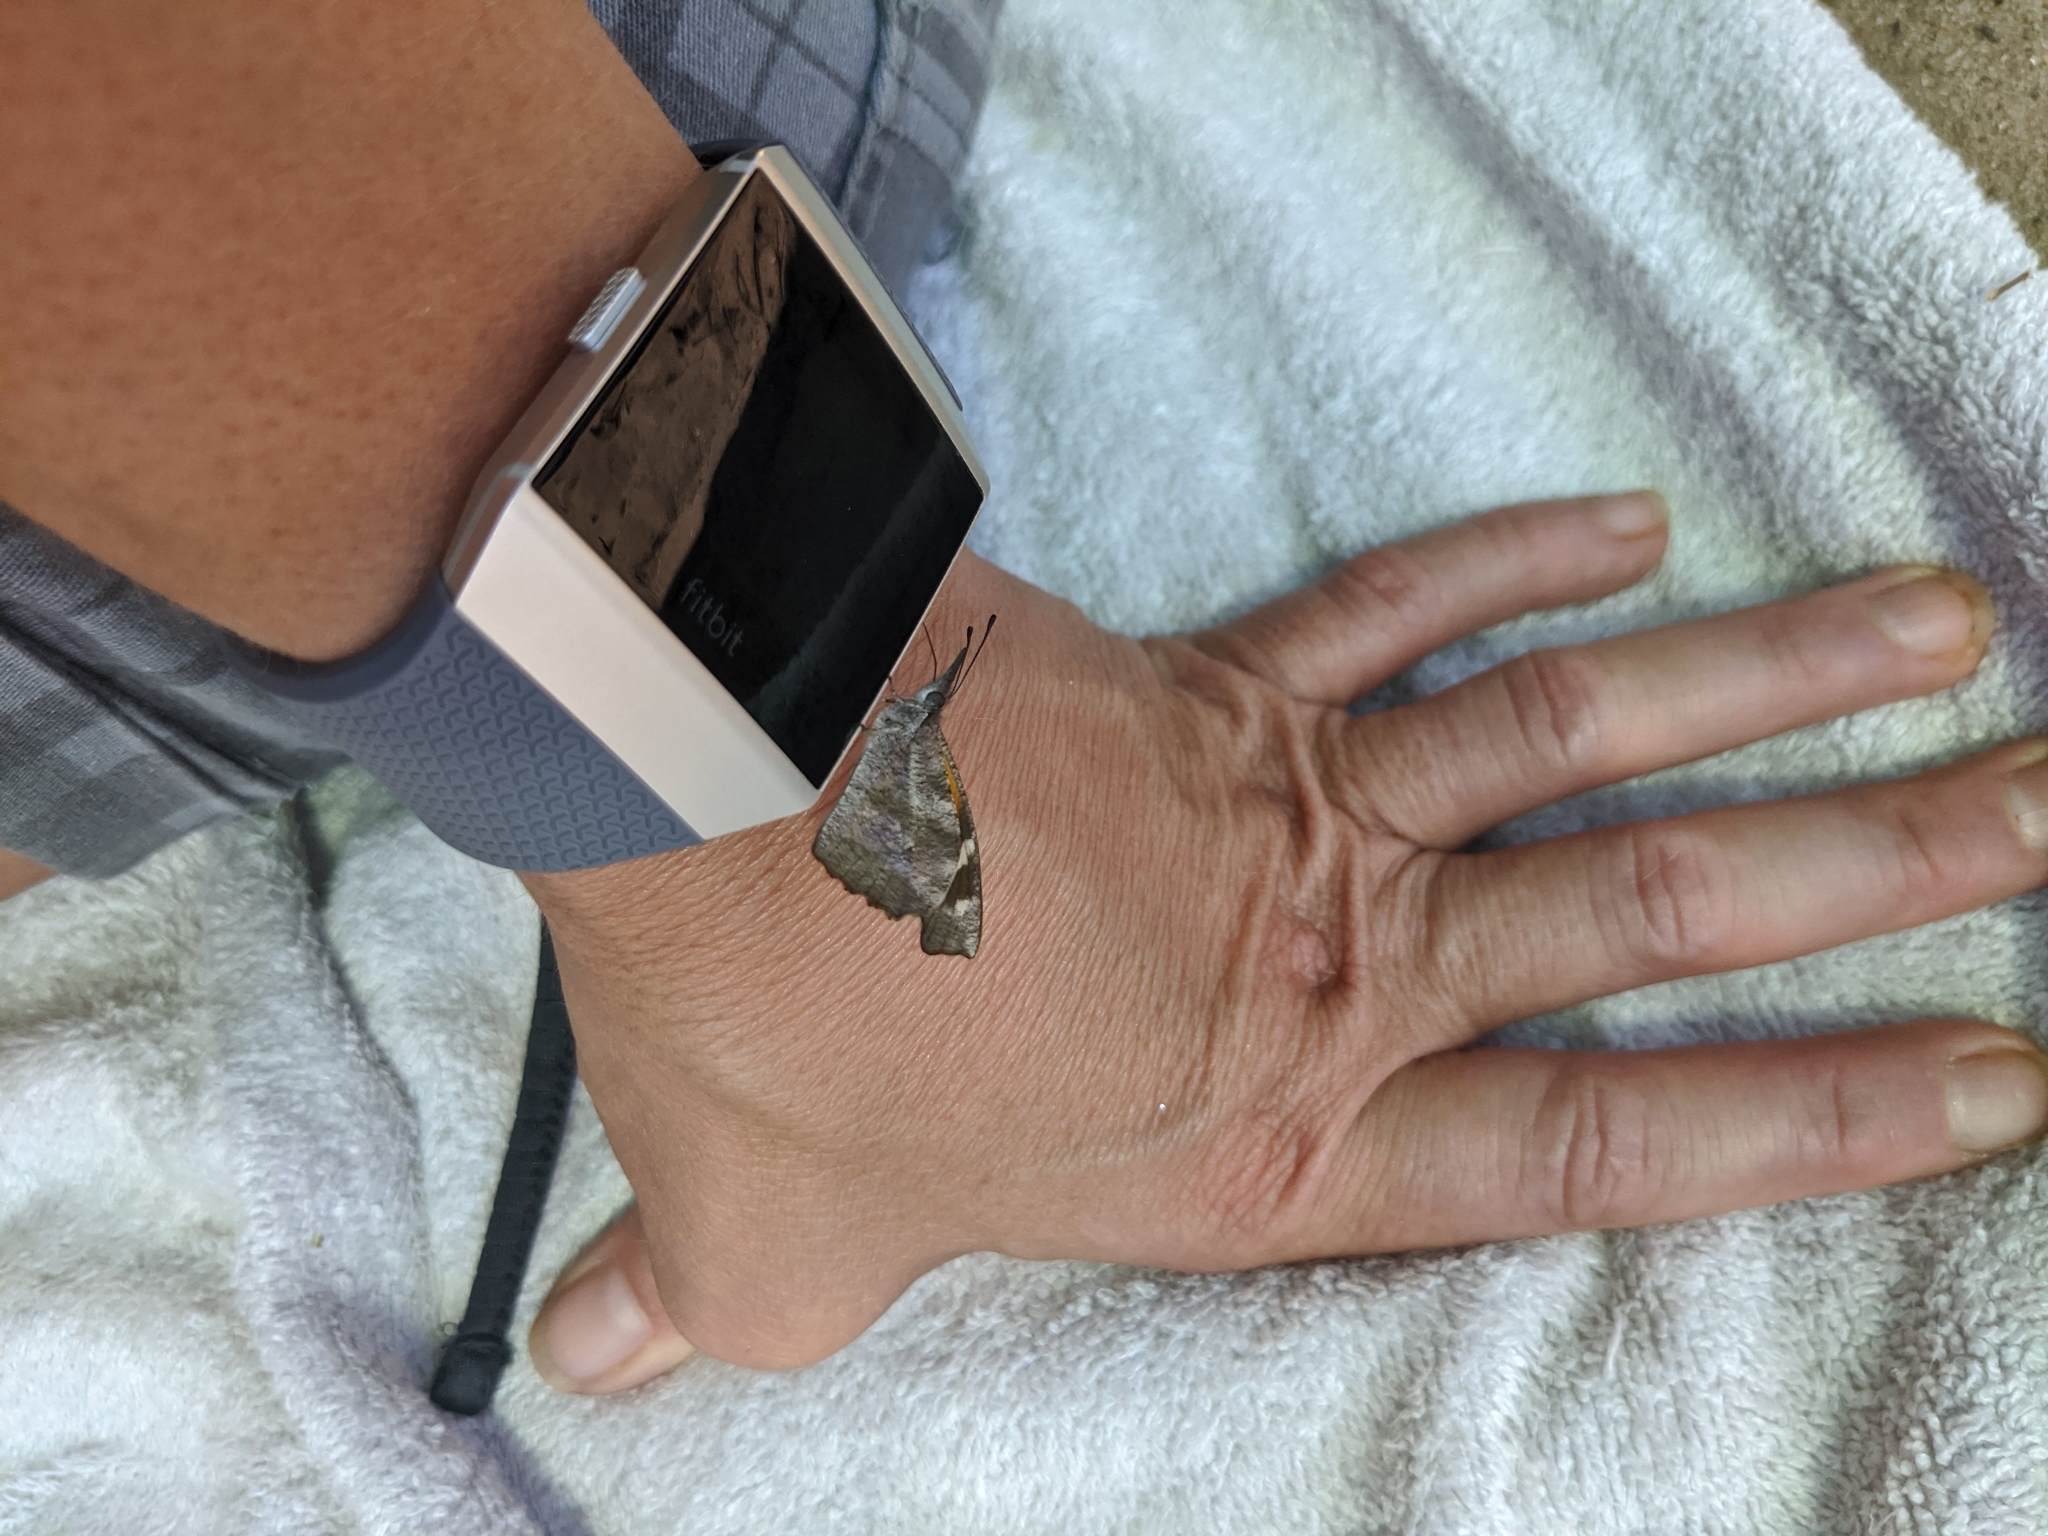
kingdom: Animalia
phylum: Arthropoda
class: Insecta
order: Lepidoptera
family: Nymphalidae
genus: Libytheana
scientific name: Libytheana carinenta
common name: American snout
